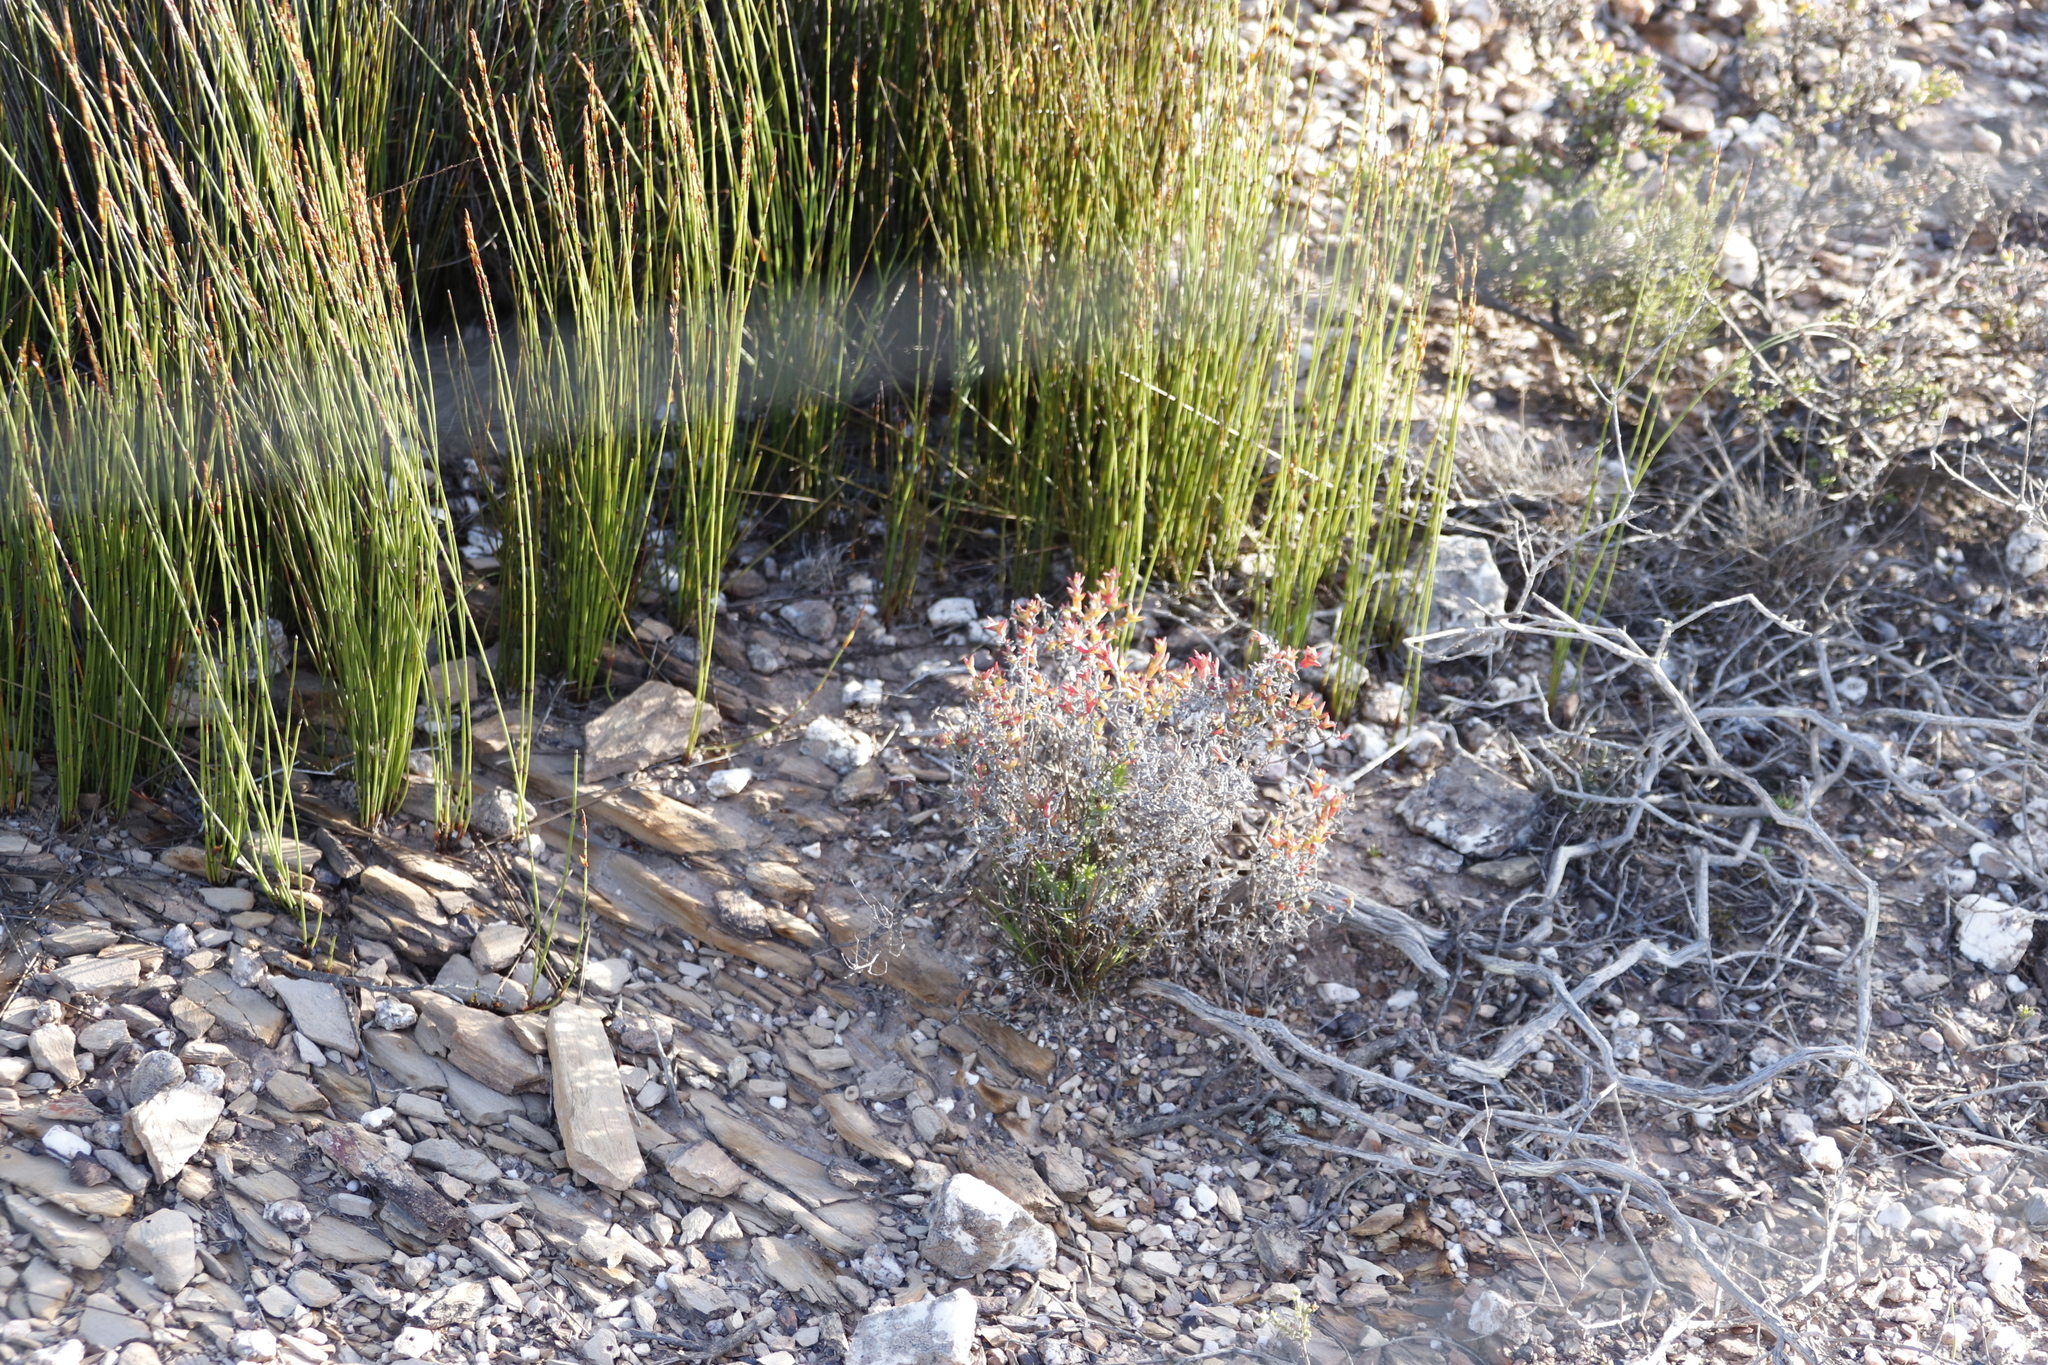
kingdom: Plantae
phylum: Tracheophyta
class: Magnoliopsida
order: Caryophyllales
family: Aizoaceae
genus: Ruschia
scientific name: Ruschia tenella
